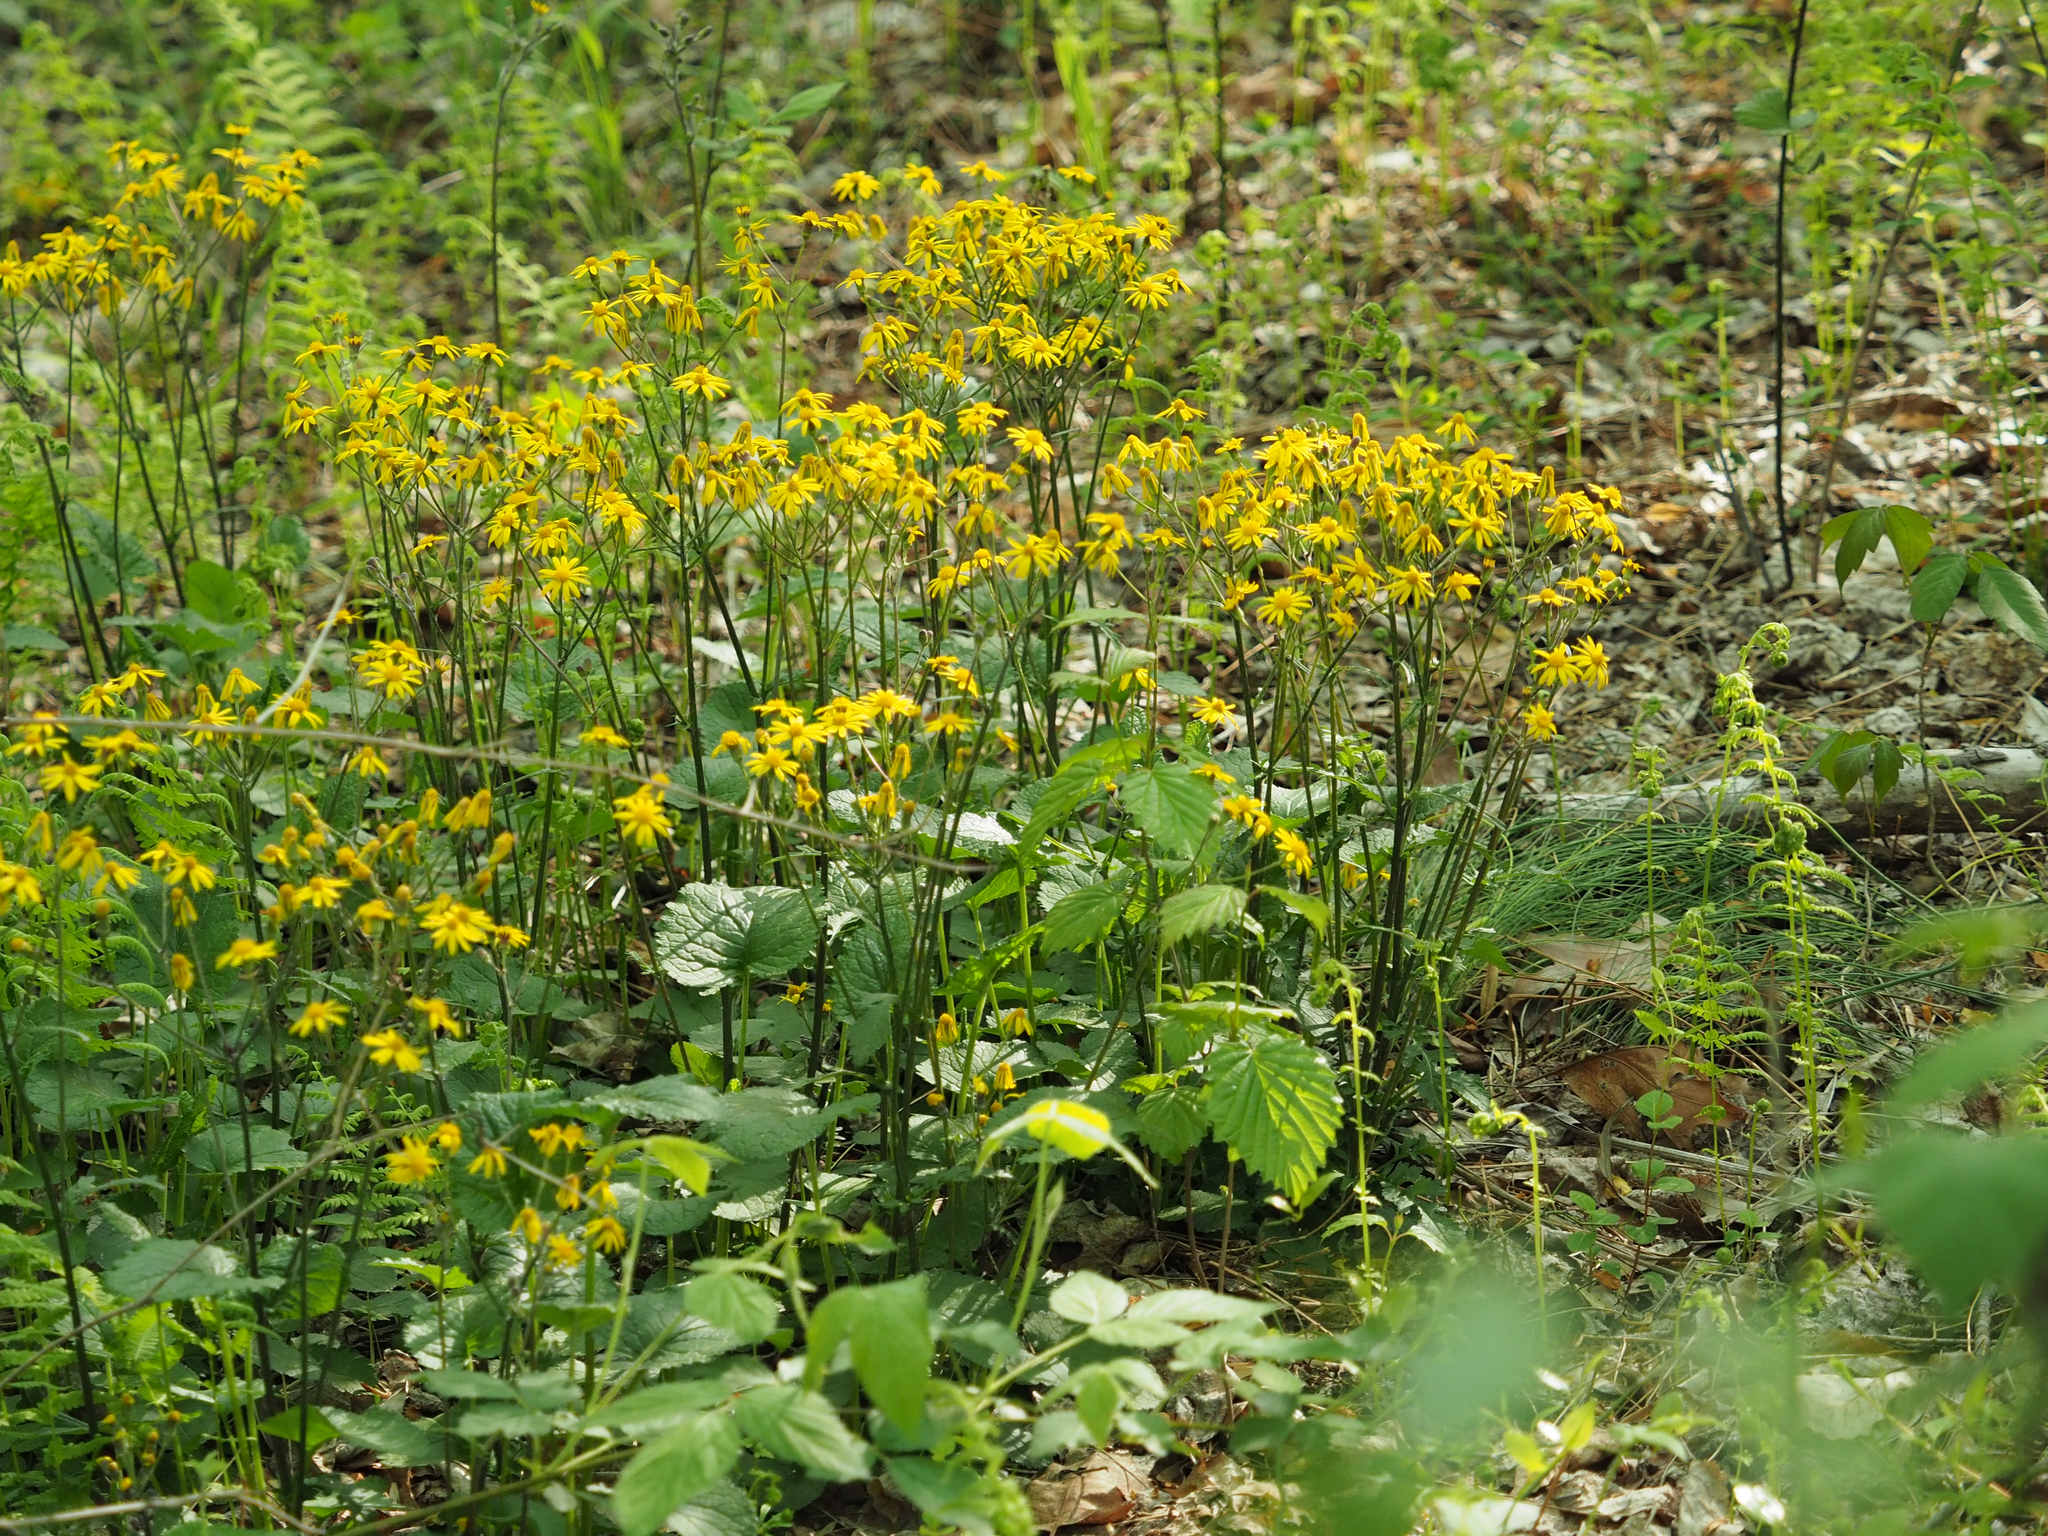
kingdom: Plantae
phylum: Tracheophyta
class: Magnoliopsida
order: Asterales
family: Asteraceae
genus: Packera
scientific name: Packera aurea
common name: Golden groundsel
